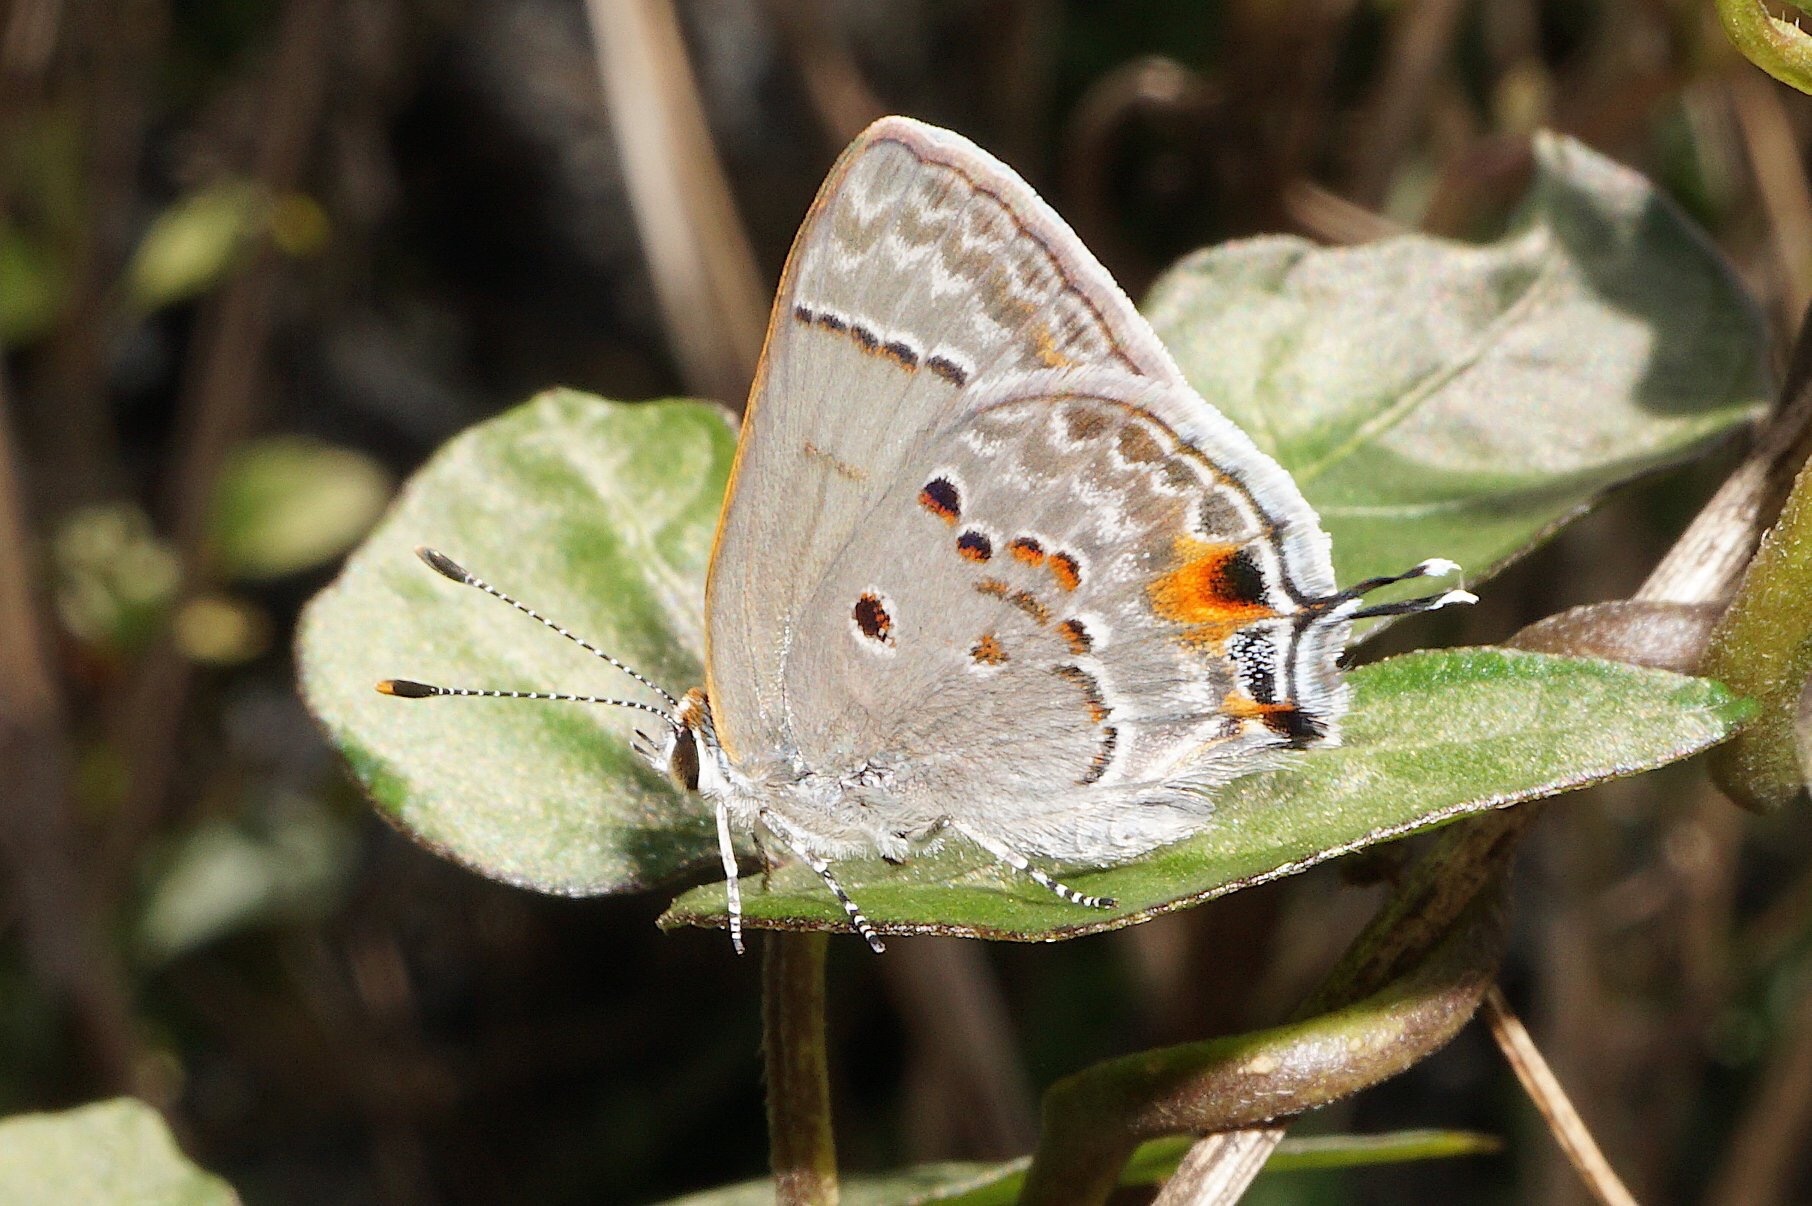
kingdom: Animalia
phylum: Arthropoda
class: Insecta
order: Lepidoptera
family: Lycaenidae
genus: Callicista
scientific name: Callicista columella
